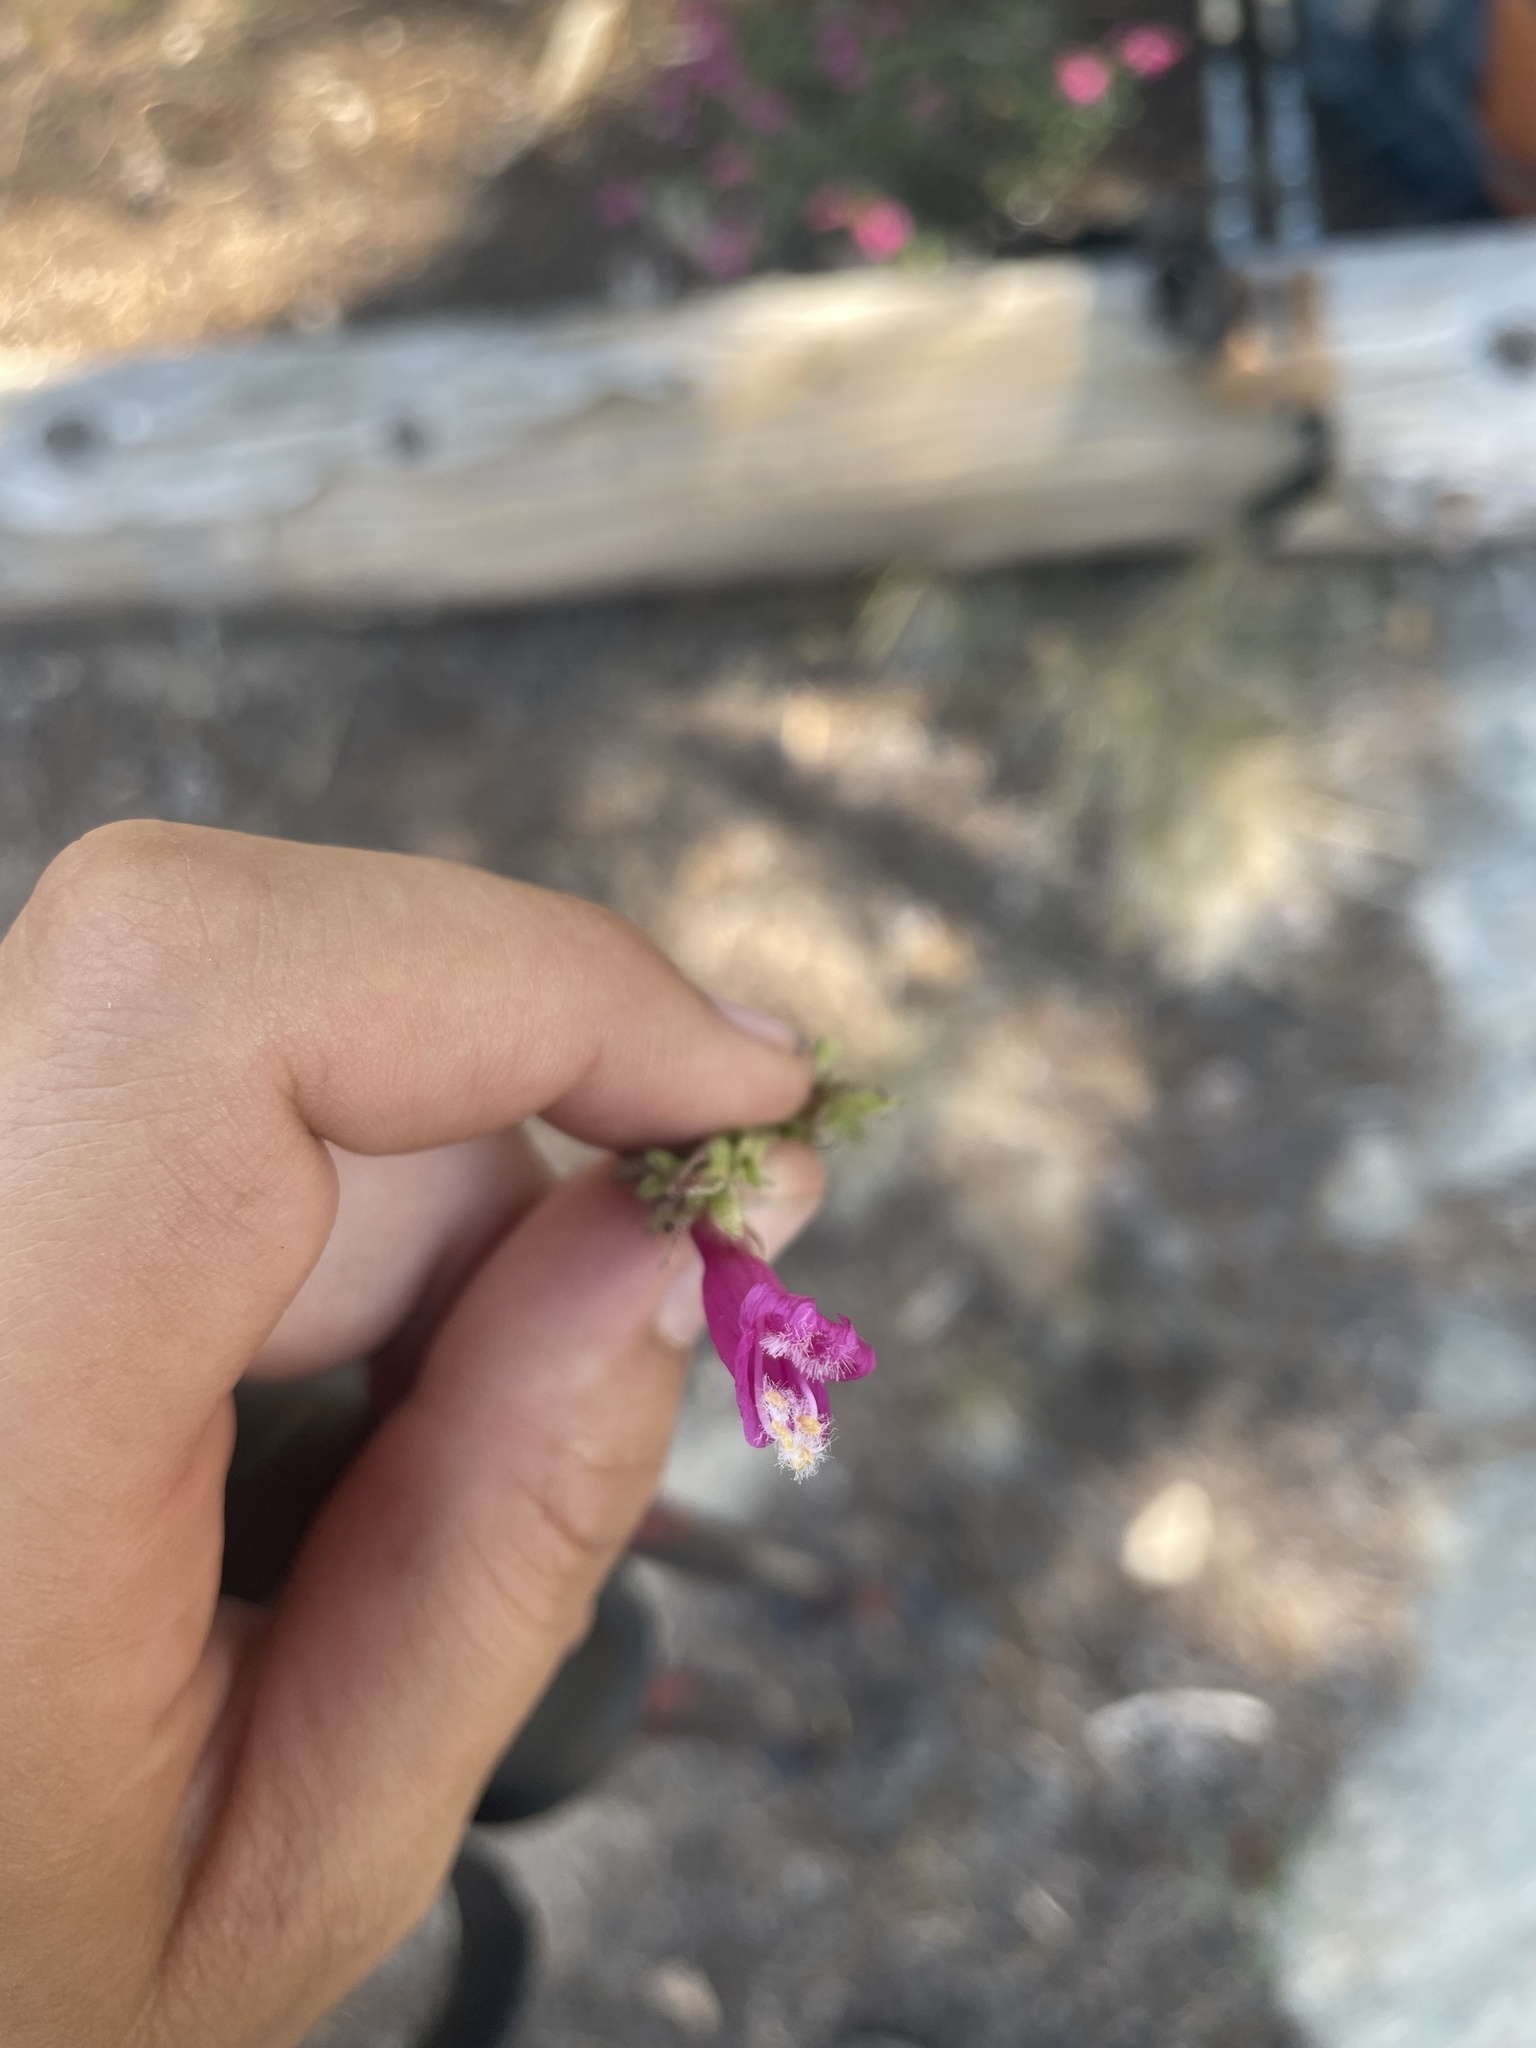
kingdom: Plantae
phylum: Tracheophyta
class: Magnoliopsida
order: Lamiales
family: Plantaginaceae
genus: Penstemon
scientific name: Penstemon newberryi
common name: Mountain-pride
